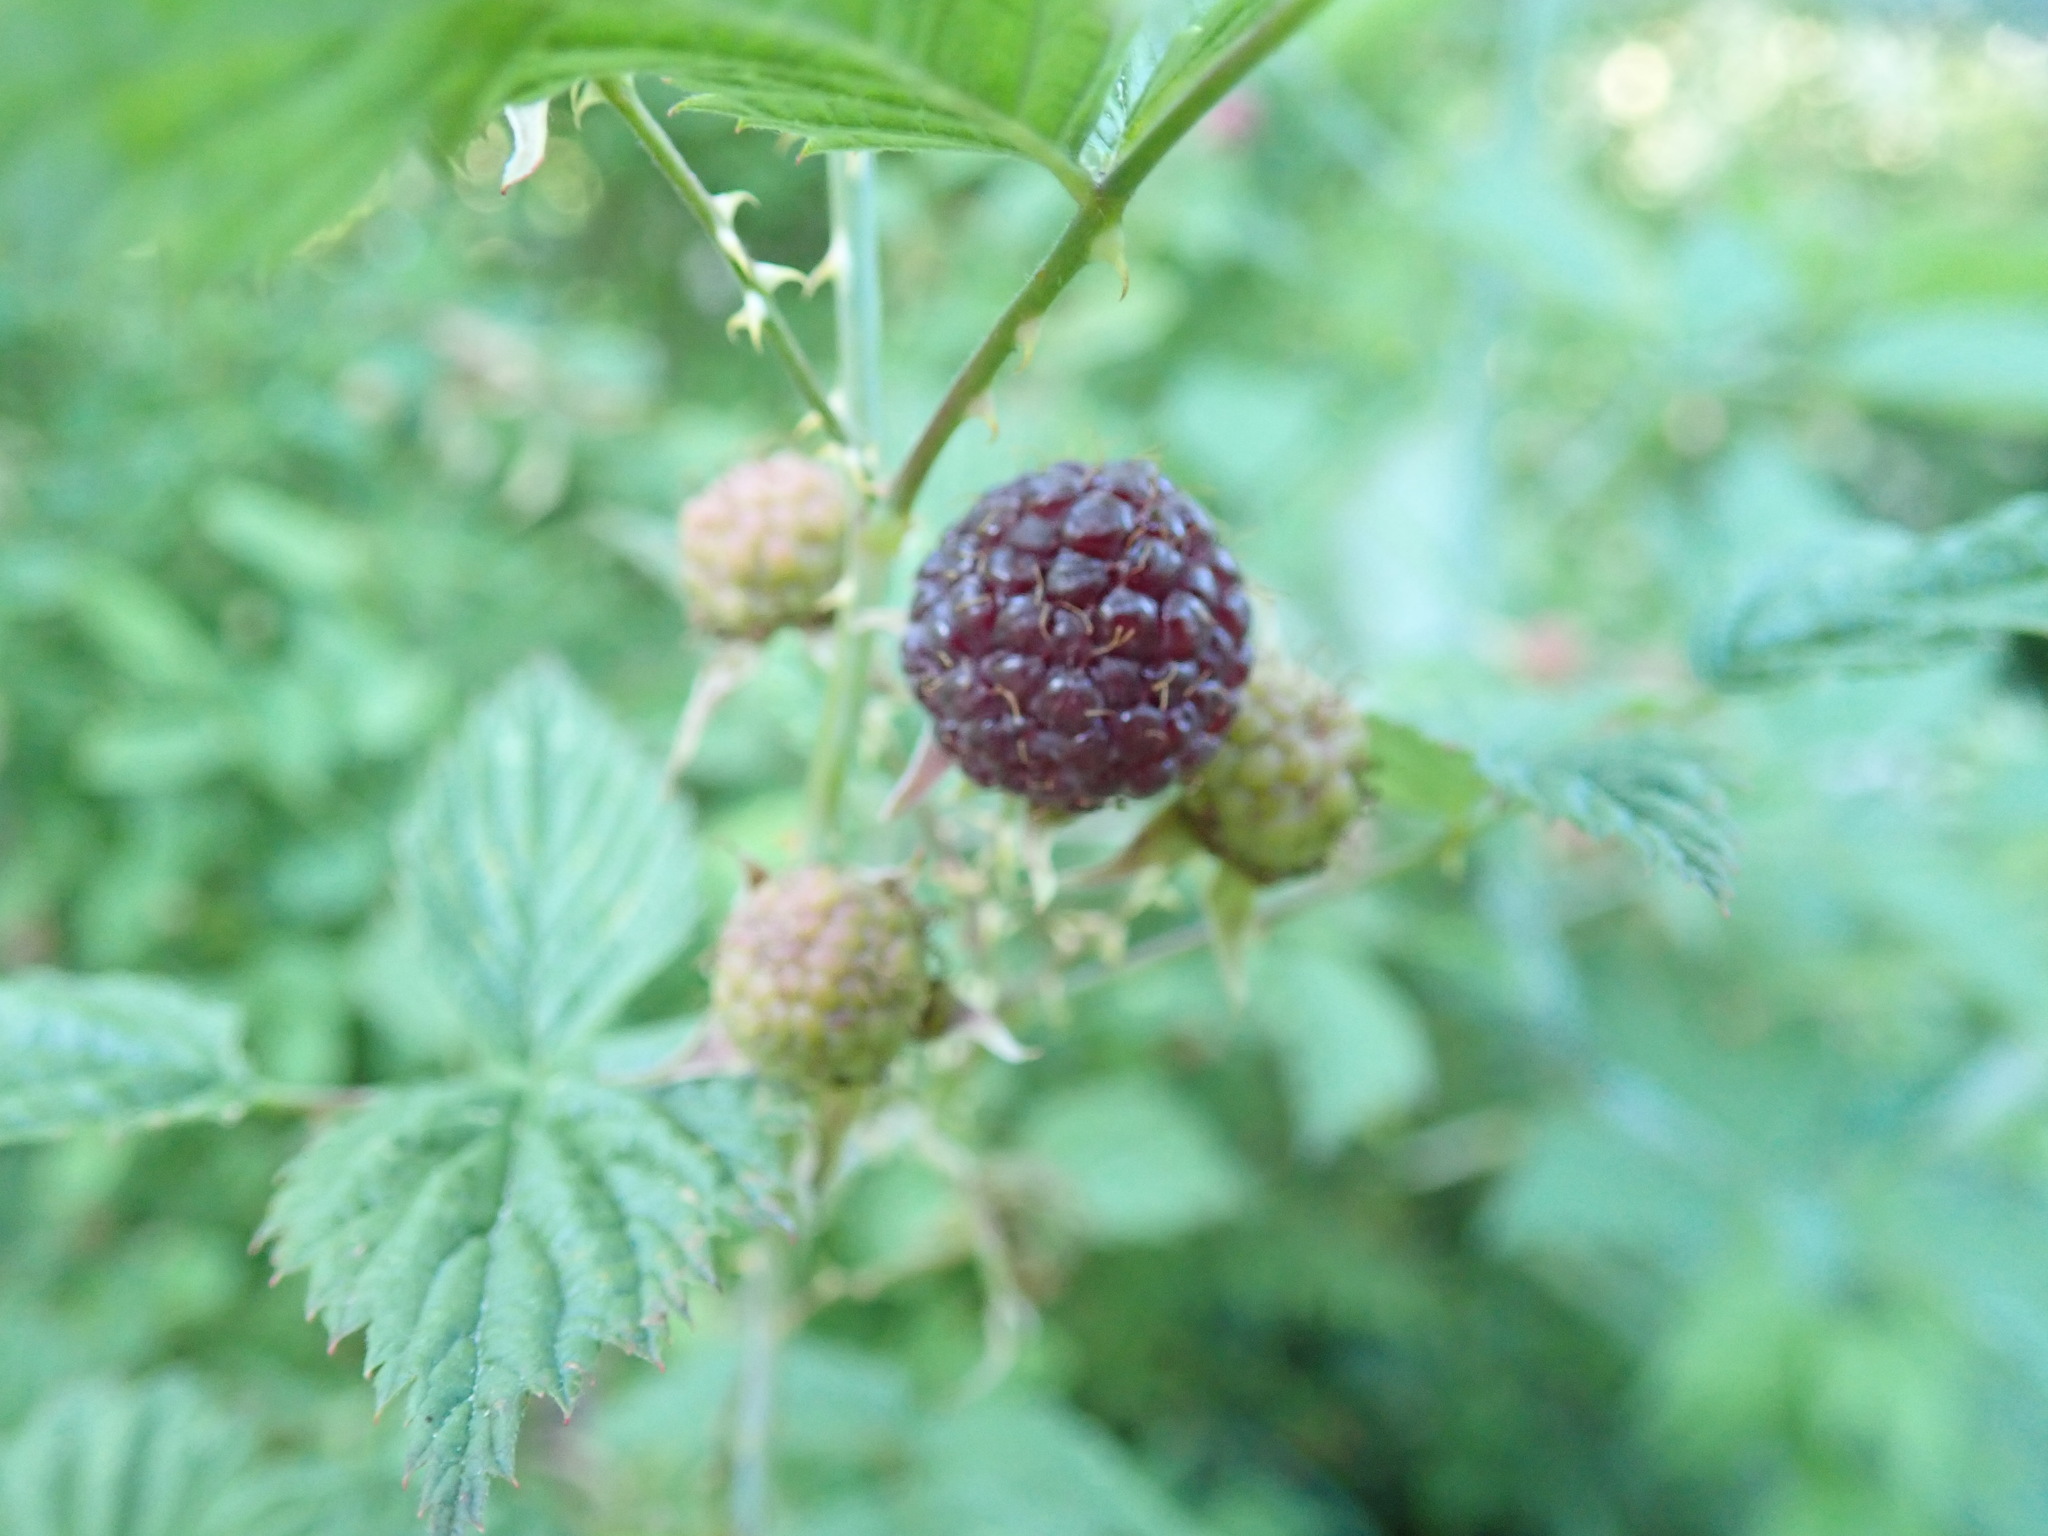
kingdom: Plantae
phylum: Tracheophyta
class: Magnoliopsida
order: Rosales
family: Rosaceae
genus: Rubus
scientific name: Rubus leucodermis
